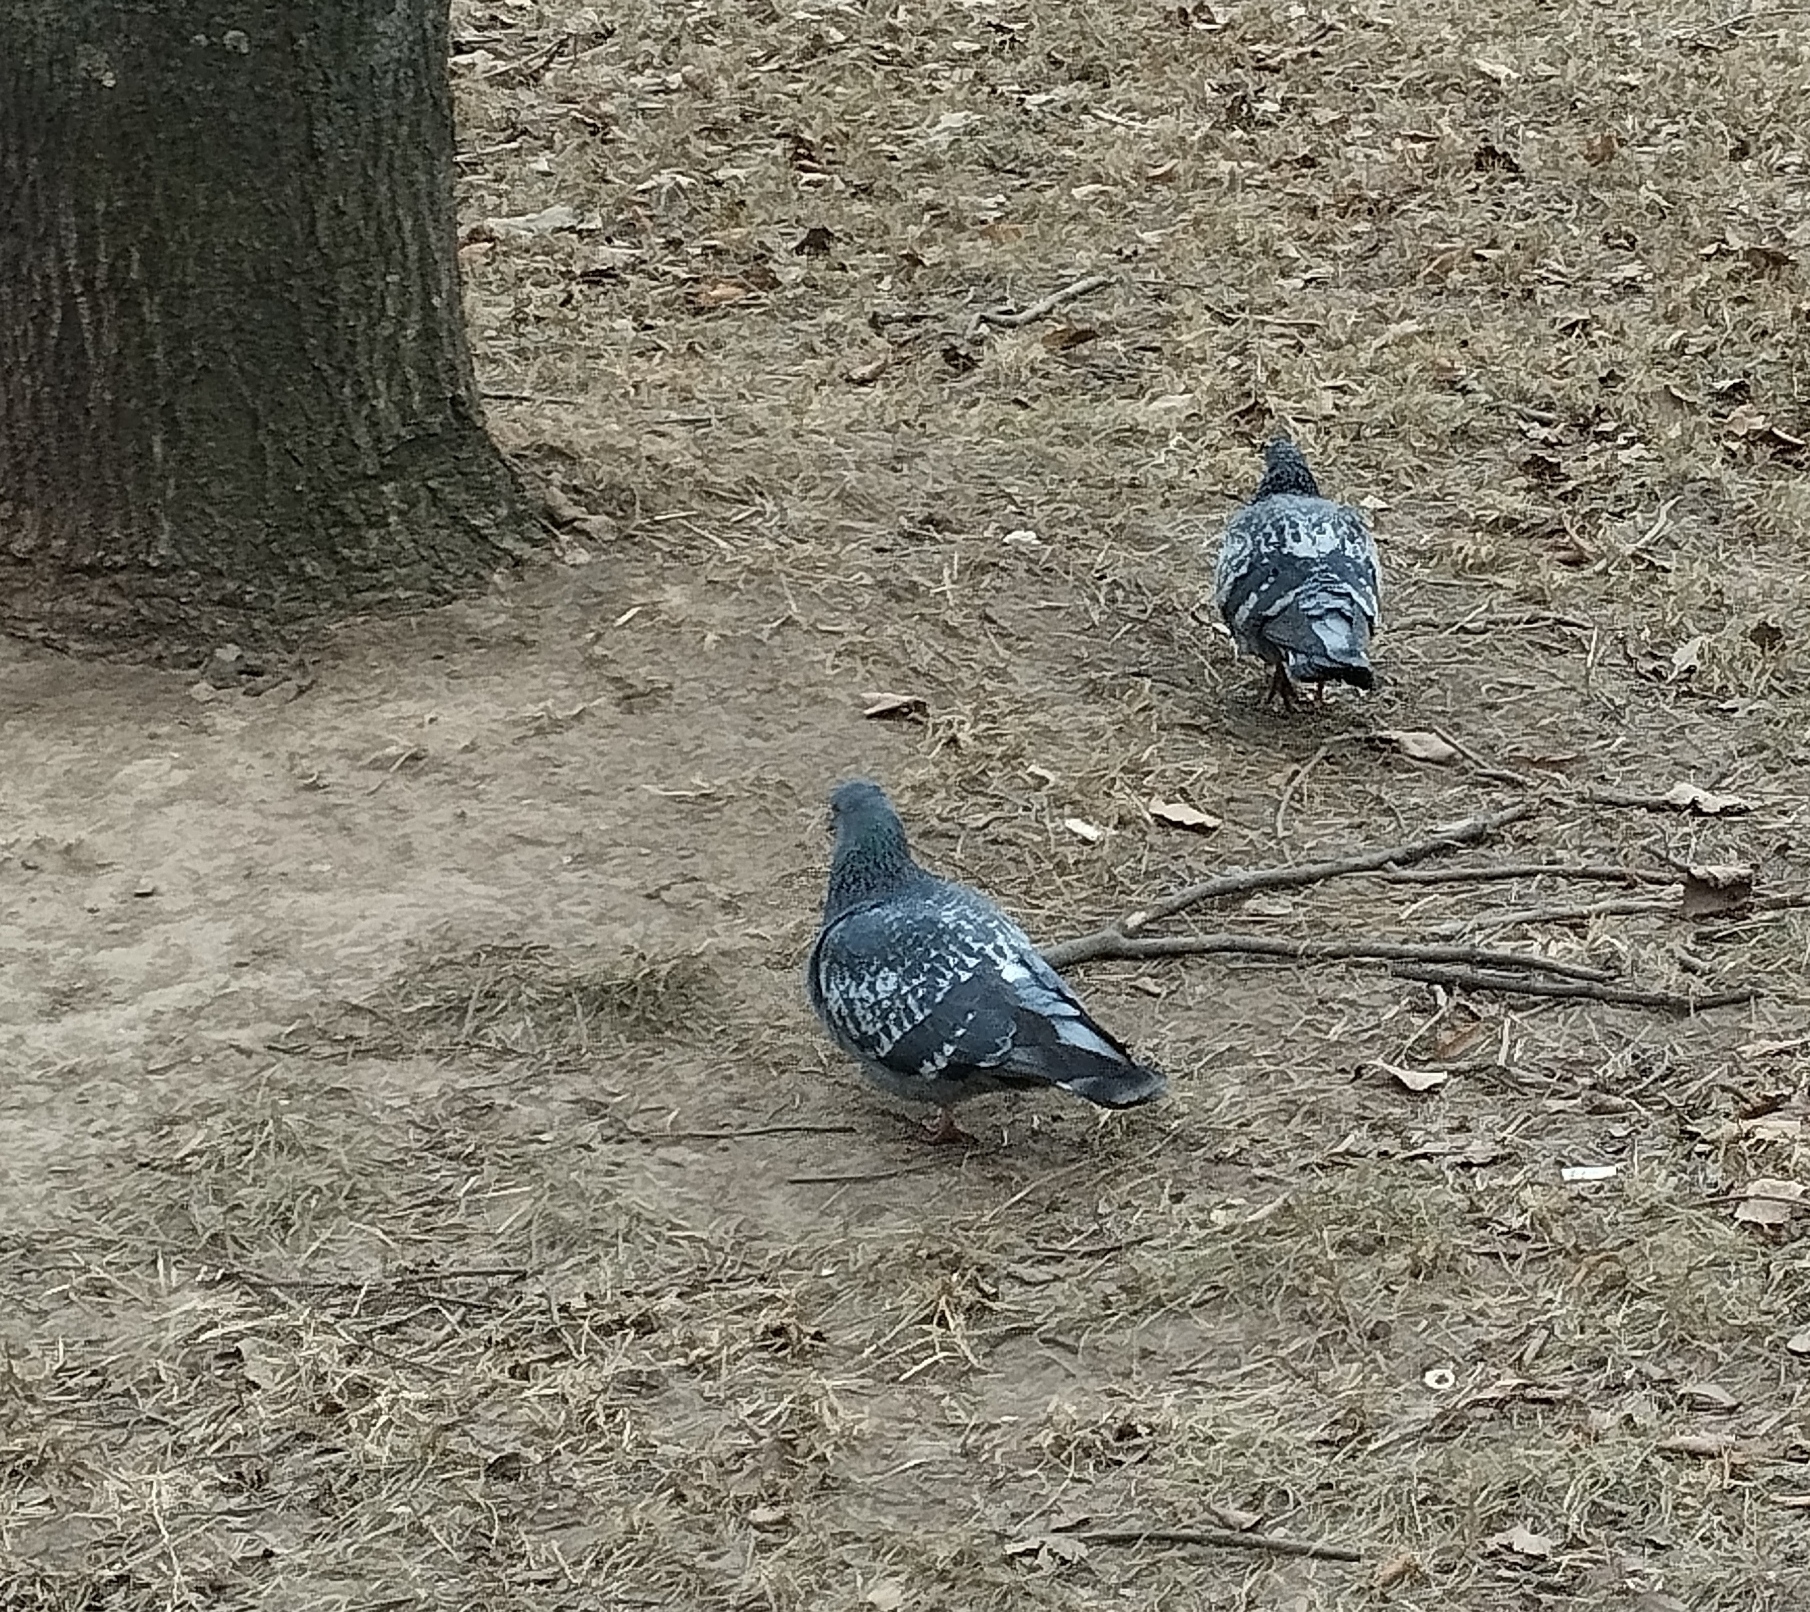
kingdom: Animalia
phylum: Chordata
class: Aves
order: Columbiformes
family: Columbidae
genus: Columba
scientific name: Columba livia
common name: Rock pigeon
